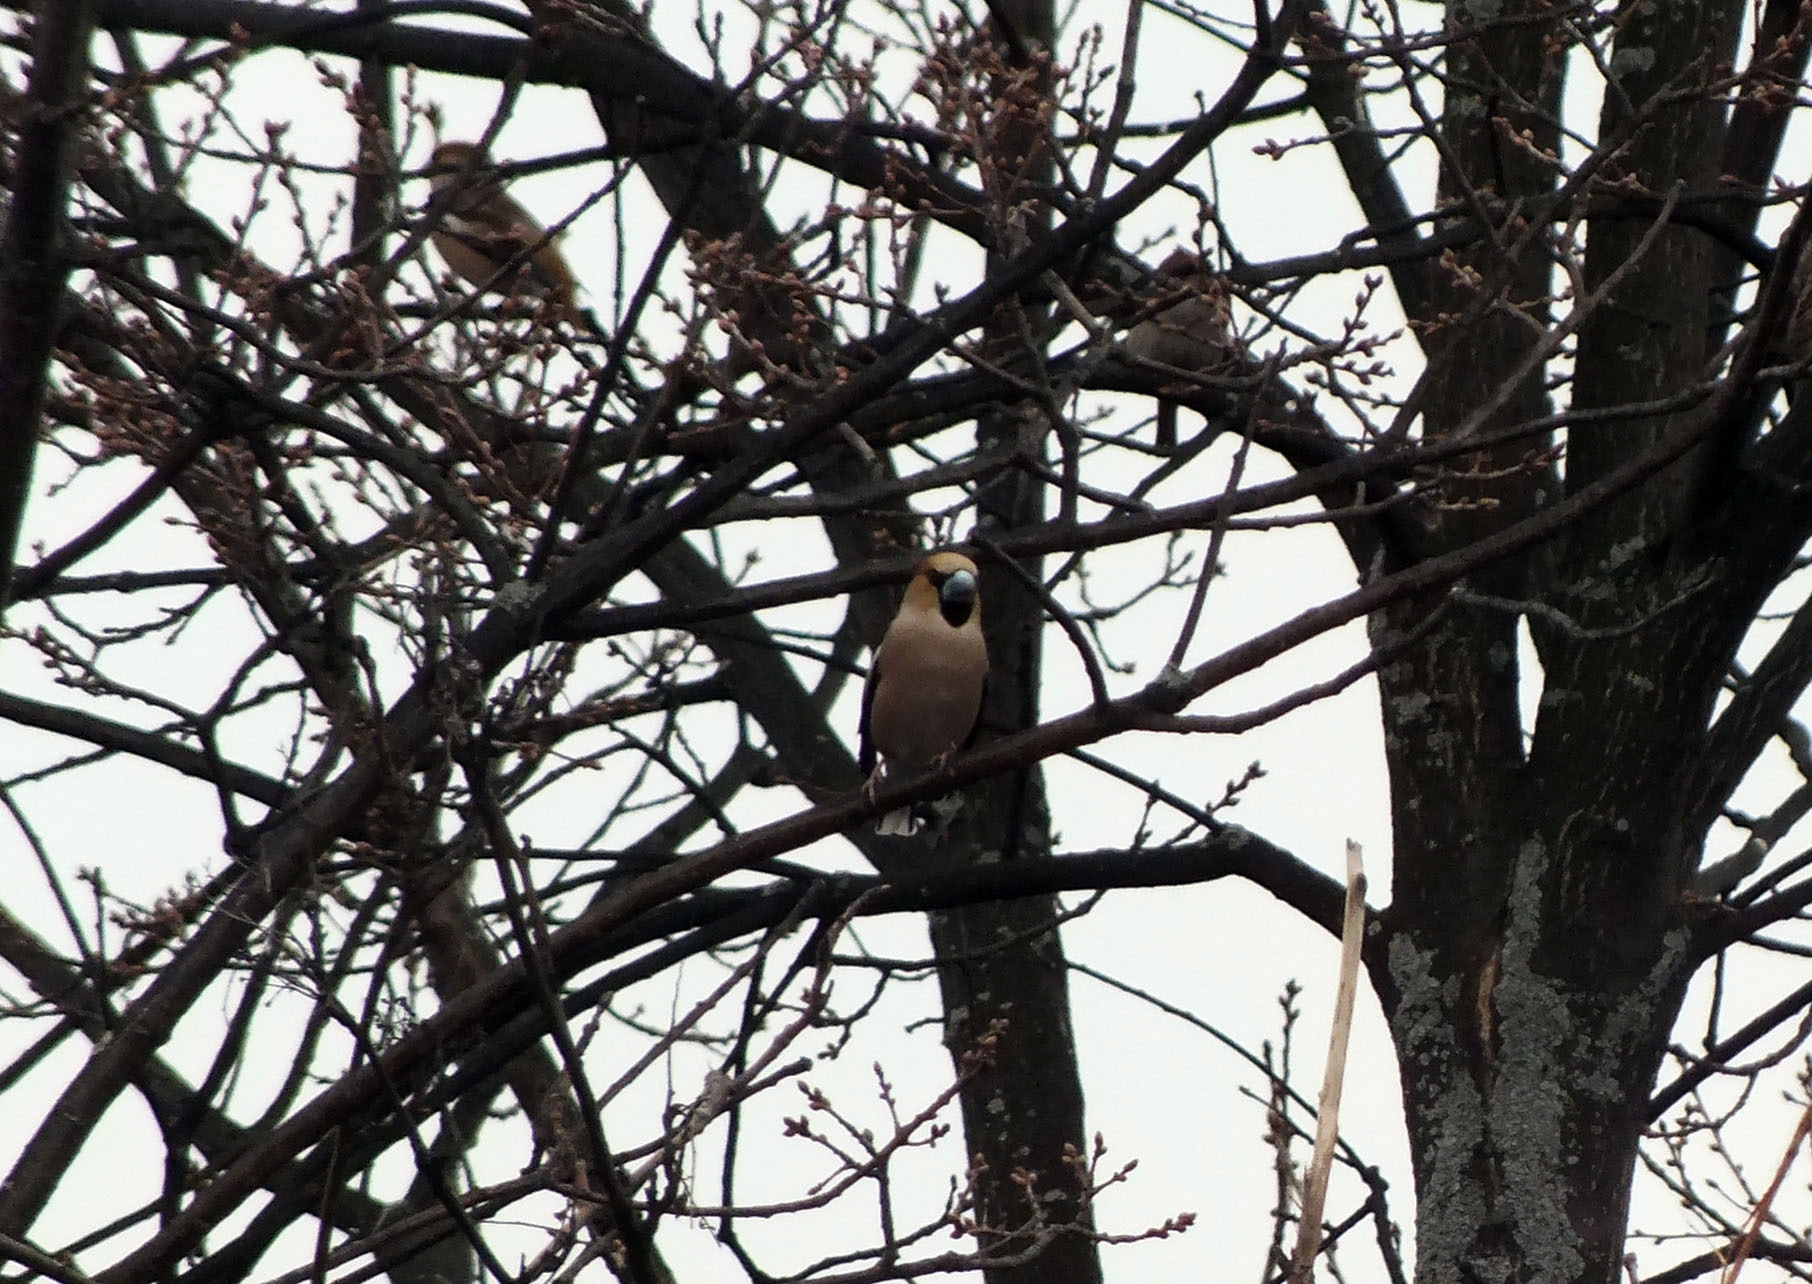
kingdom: Animalia
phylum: Chordata
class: Aves
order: Passeriformes
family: Fringillidae
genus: Coccothraustes
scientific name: Coccothraustes coccothraustes
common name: Hawfinch
